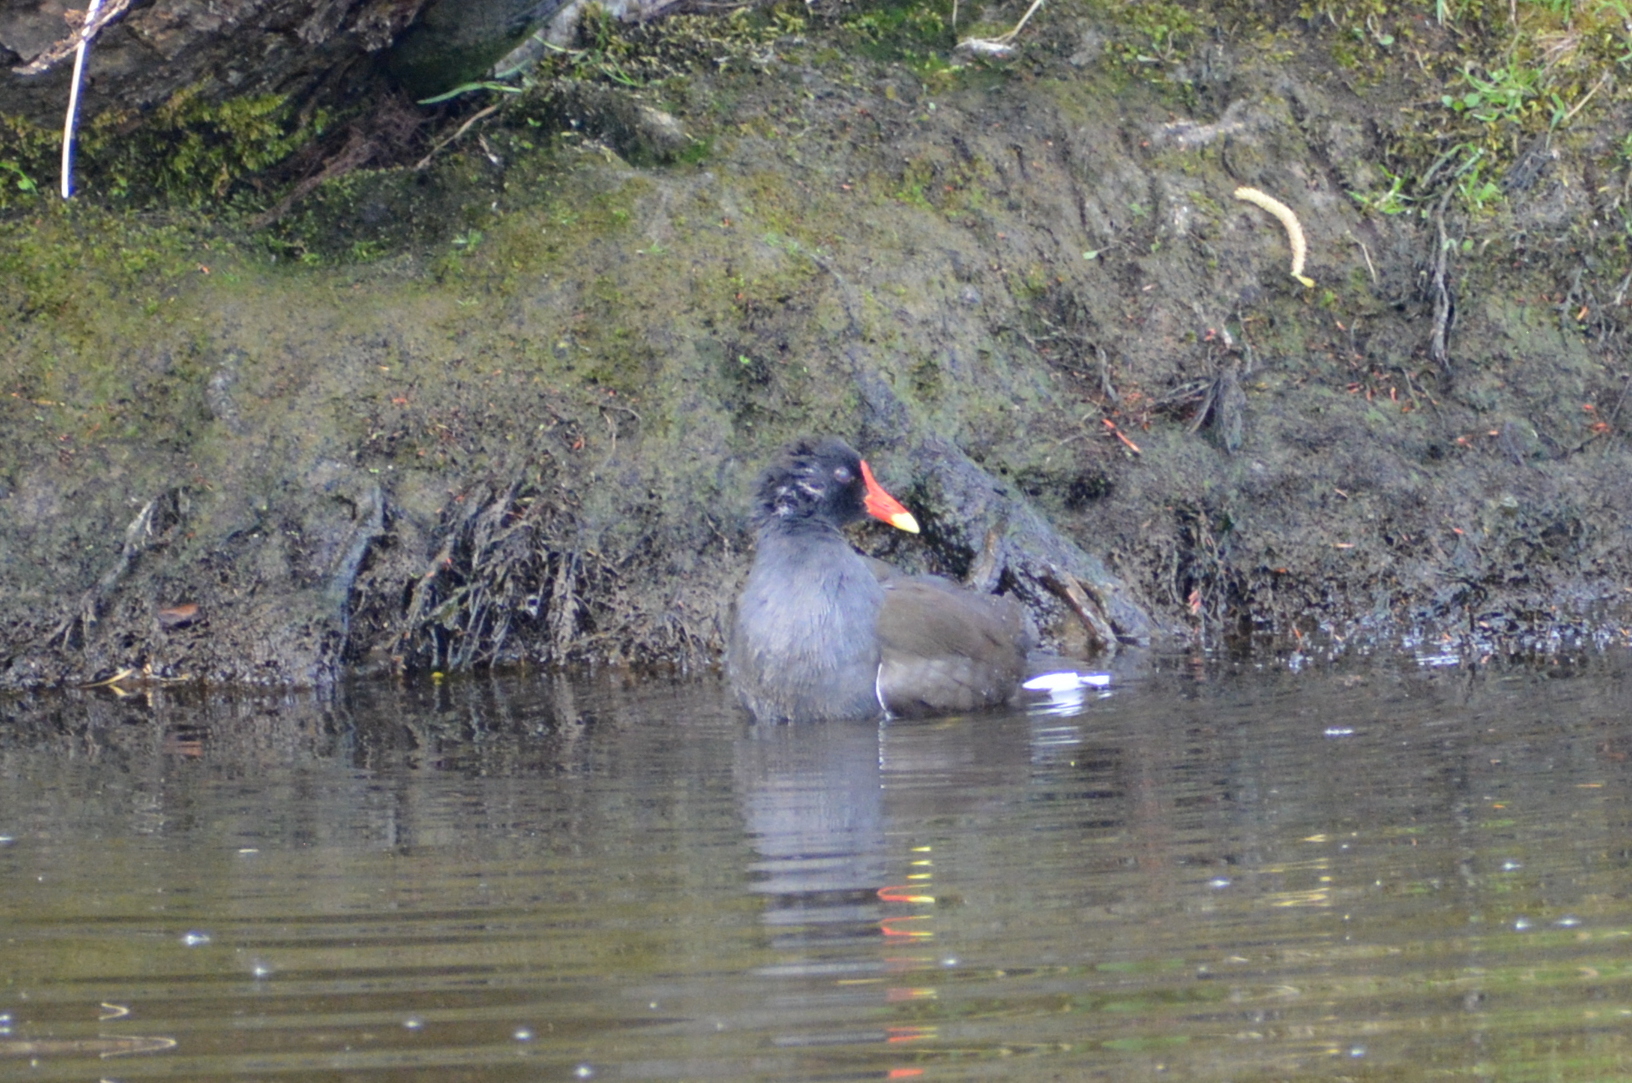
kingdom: Animalia
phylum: Chordata
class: Aves
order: Gruiformes
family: Rallidae
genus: Gallinula
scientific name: Gallinula chloropus
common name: Common moorhen
